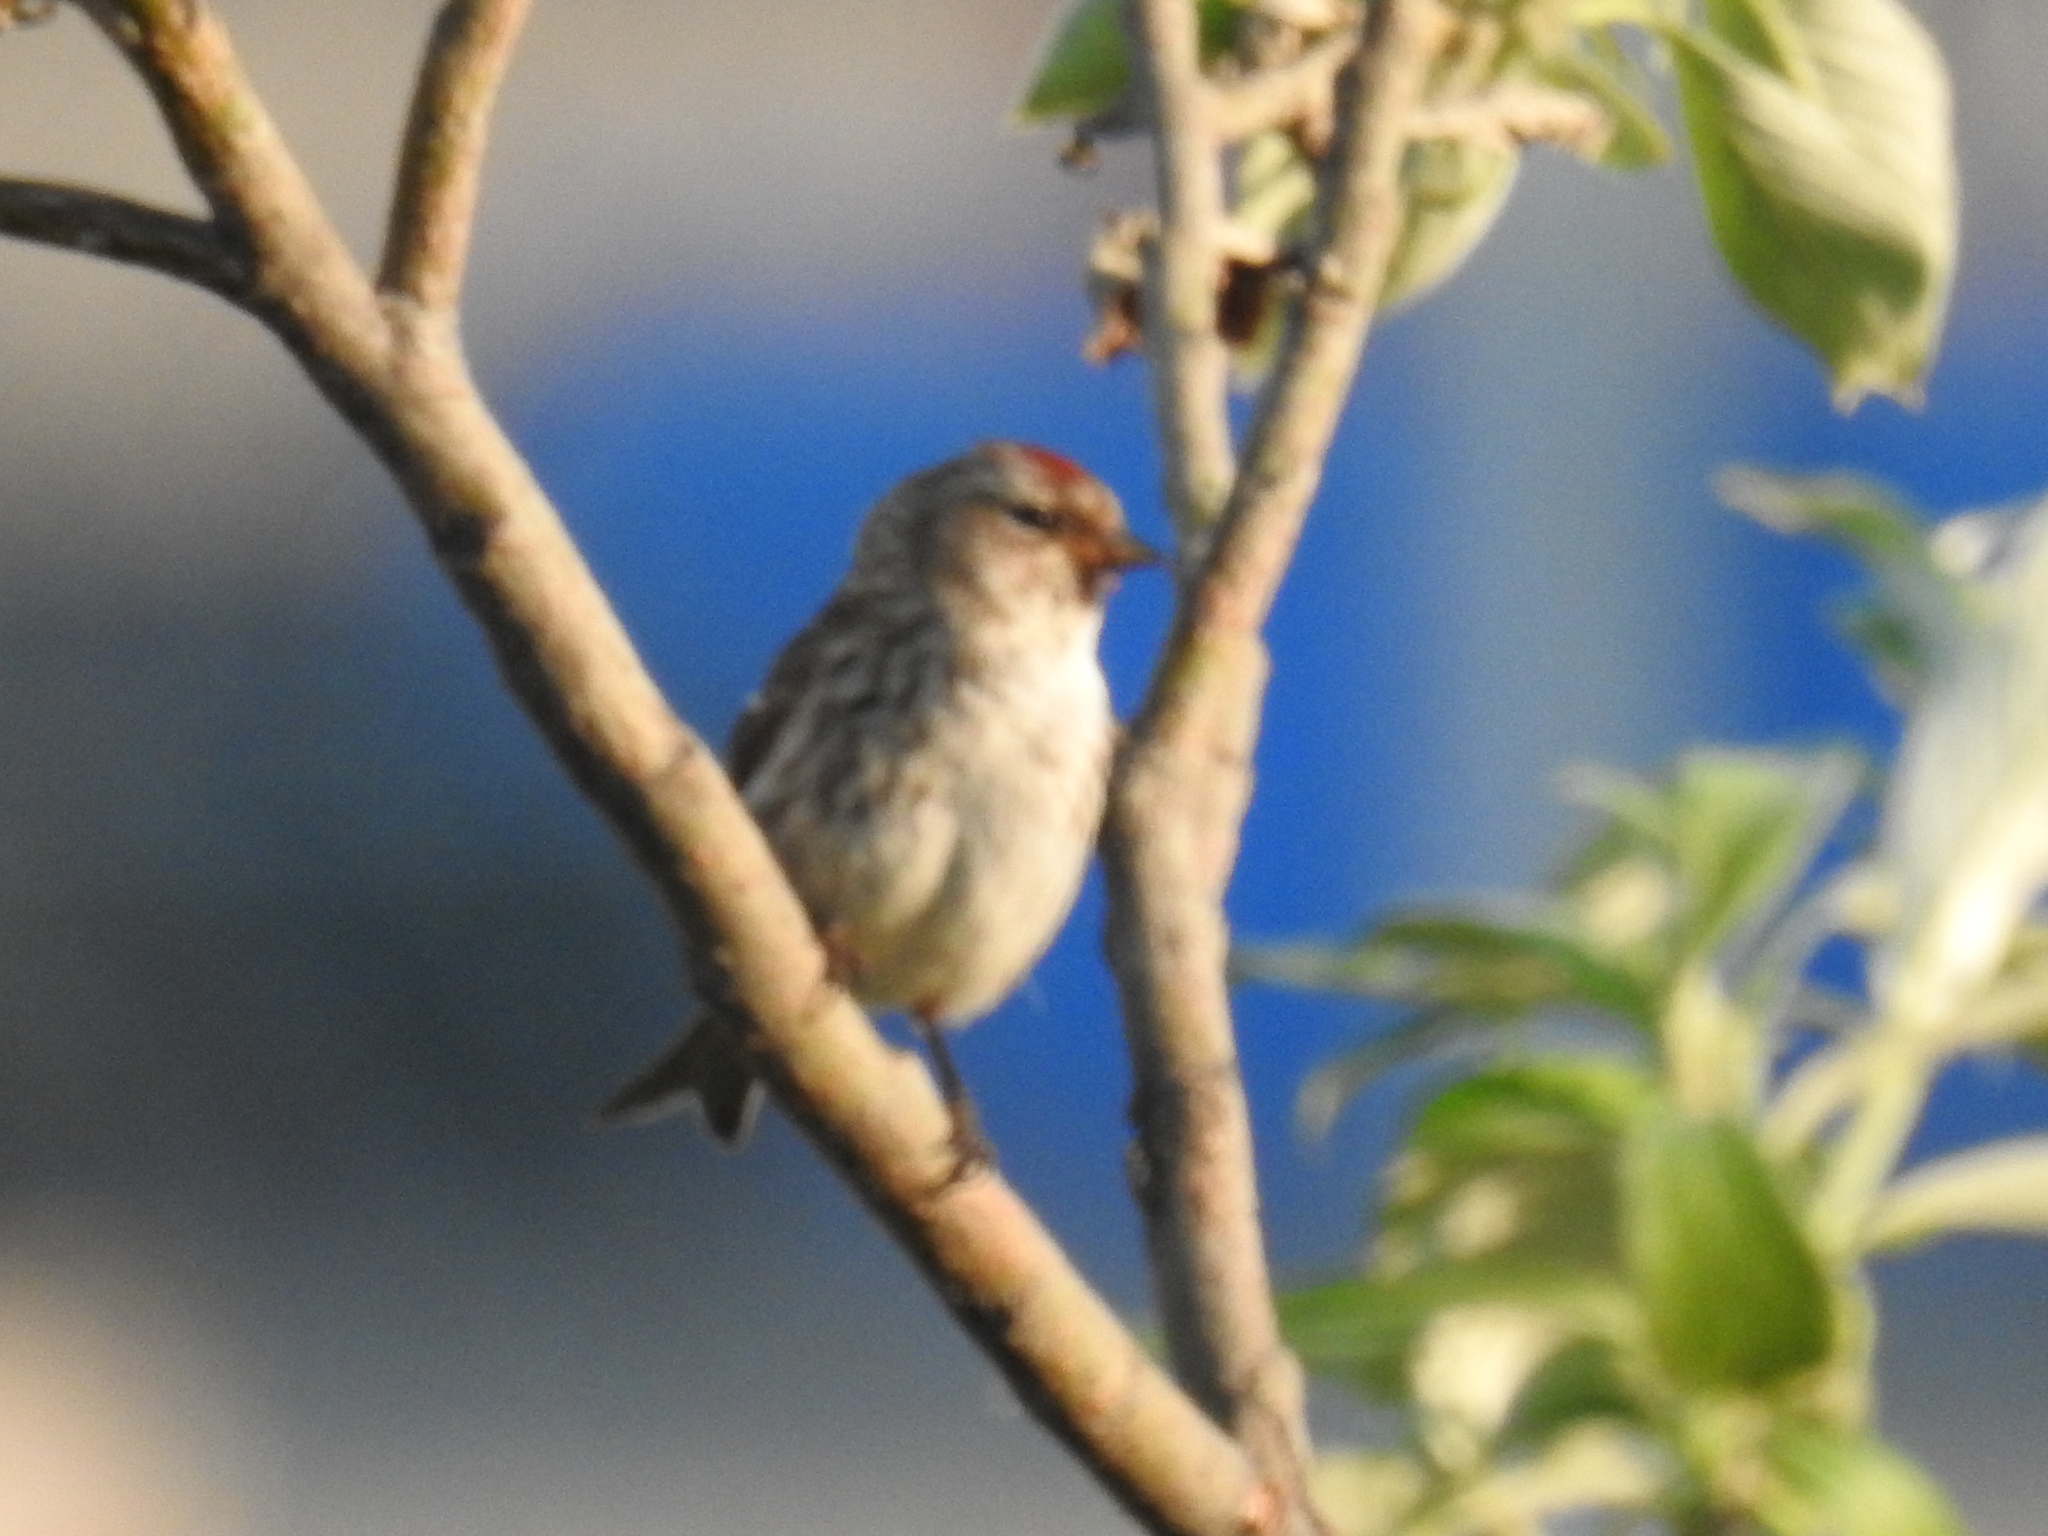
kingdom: Animalia
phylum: Chordata
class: Aves
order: Passeriformes
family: Fringillidae
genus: Acanthis
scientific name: Acanthis flammea
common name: Common redpoll
